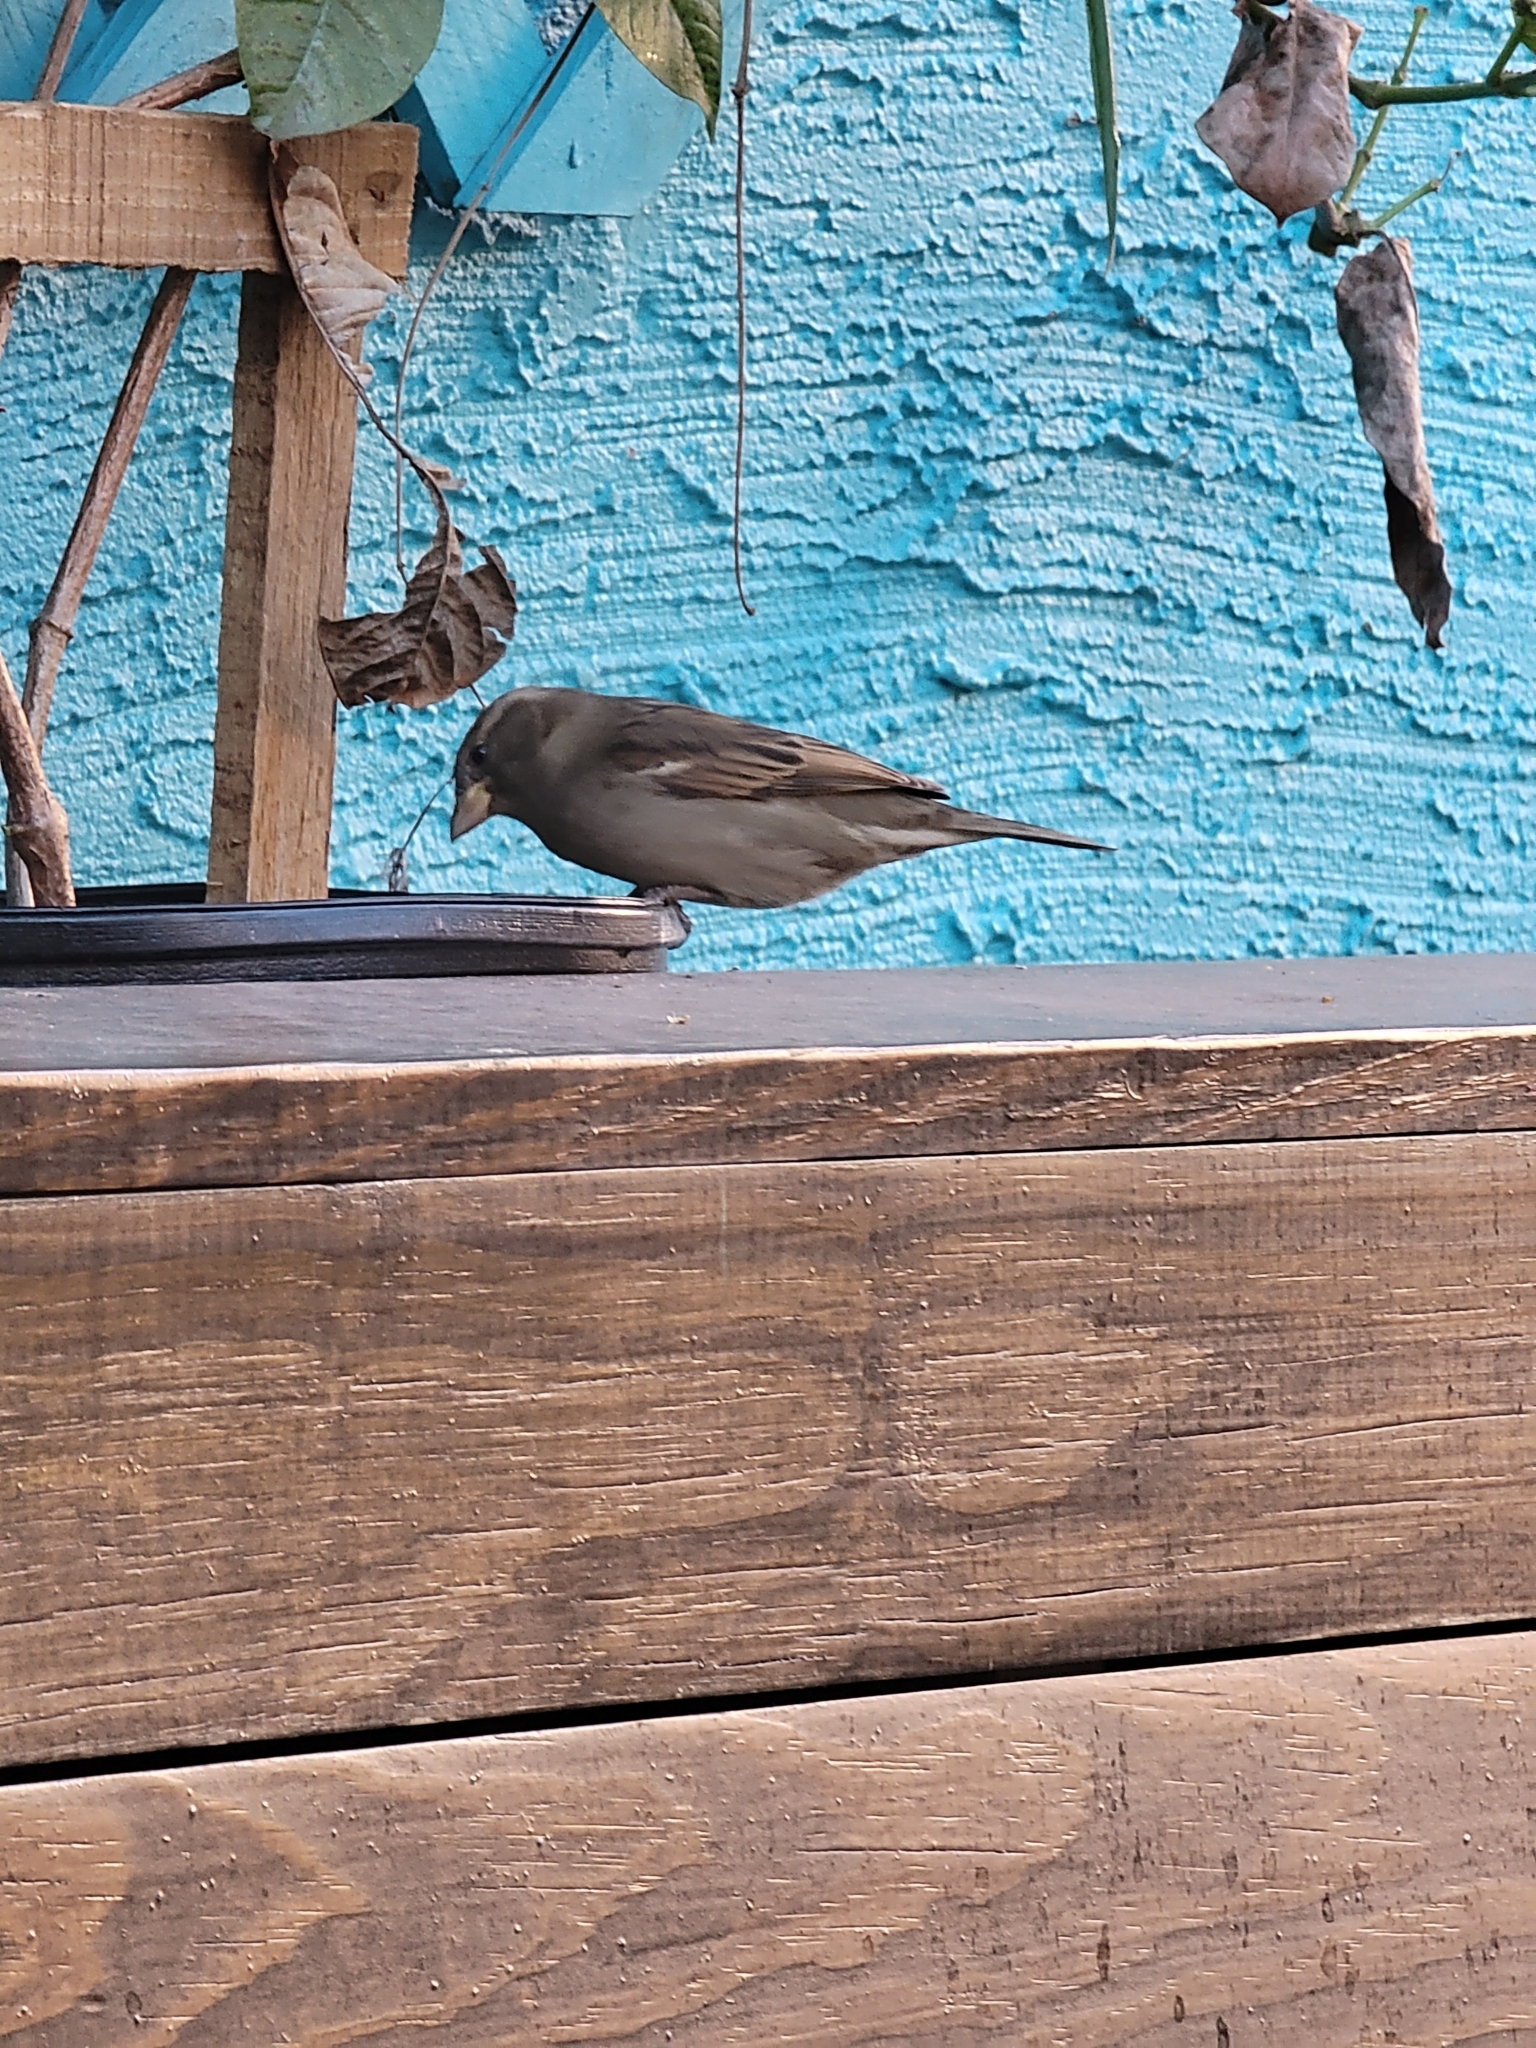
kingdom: Animalia
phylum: Chordata
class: Aves
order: Passeriformes
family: Passeridae
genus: Passer
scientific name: Passer domesticus
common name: House sparrow
